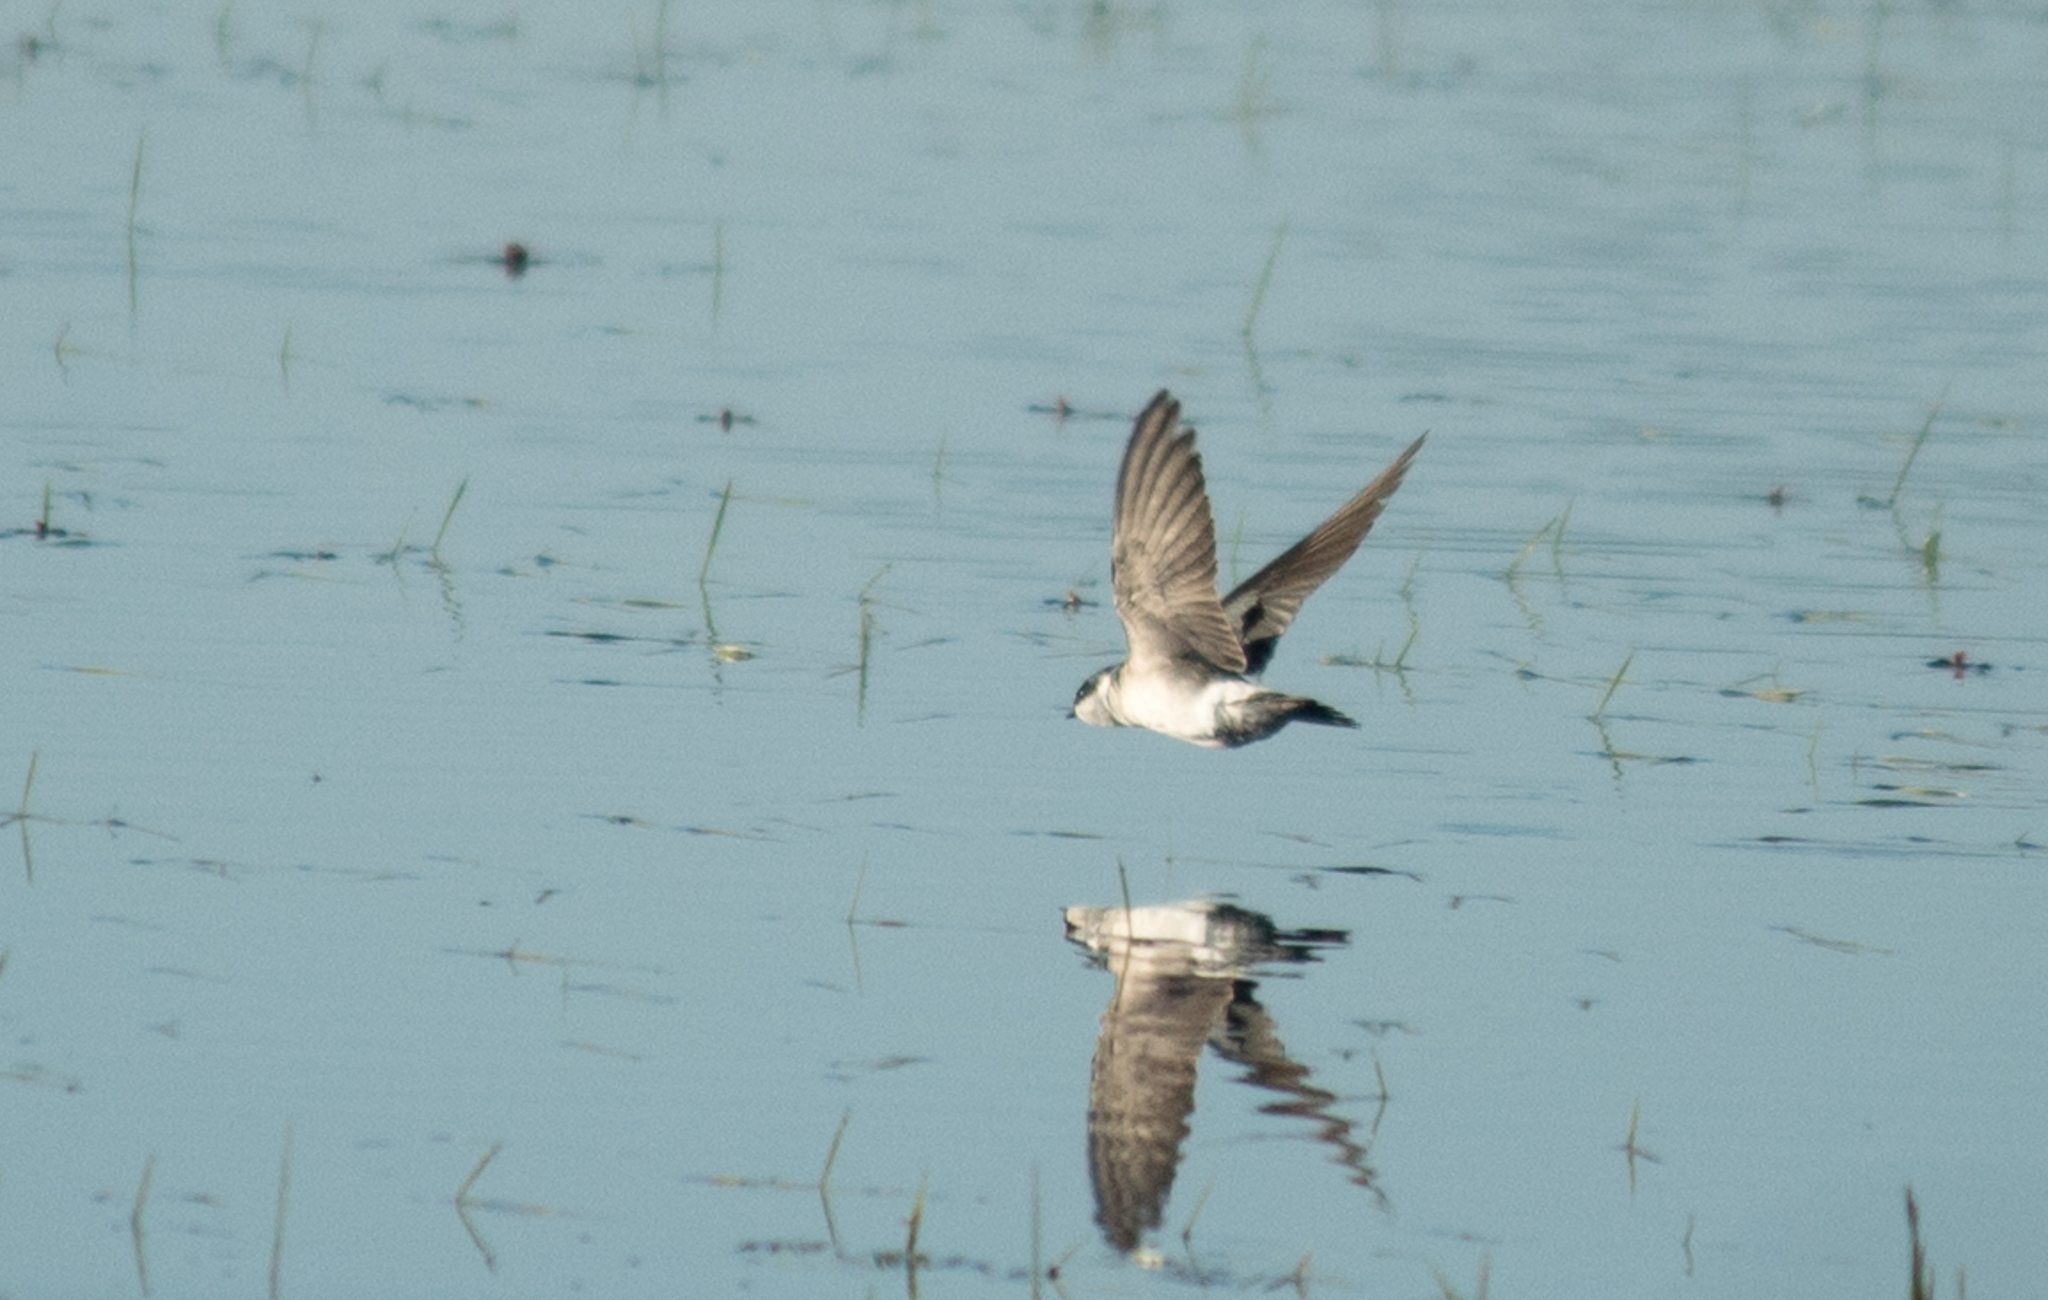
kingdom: Animalia
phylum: Chordata
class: Aves
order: Passeriformes
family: Hirundinidae
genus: Tachycineta
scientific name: Tachycineta leucorrhoa
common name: White-rumped swallow
